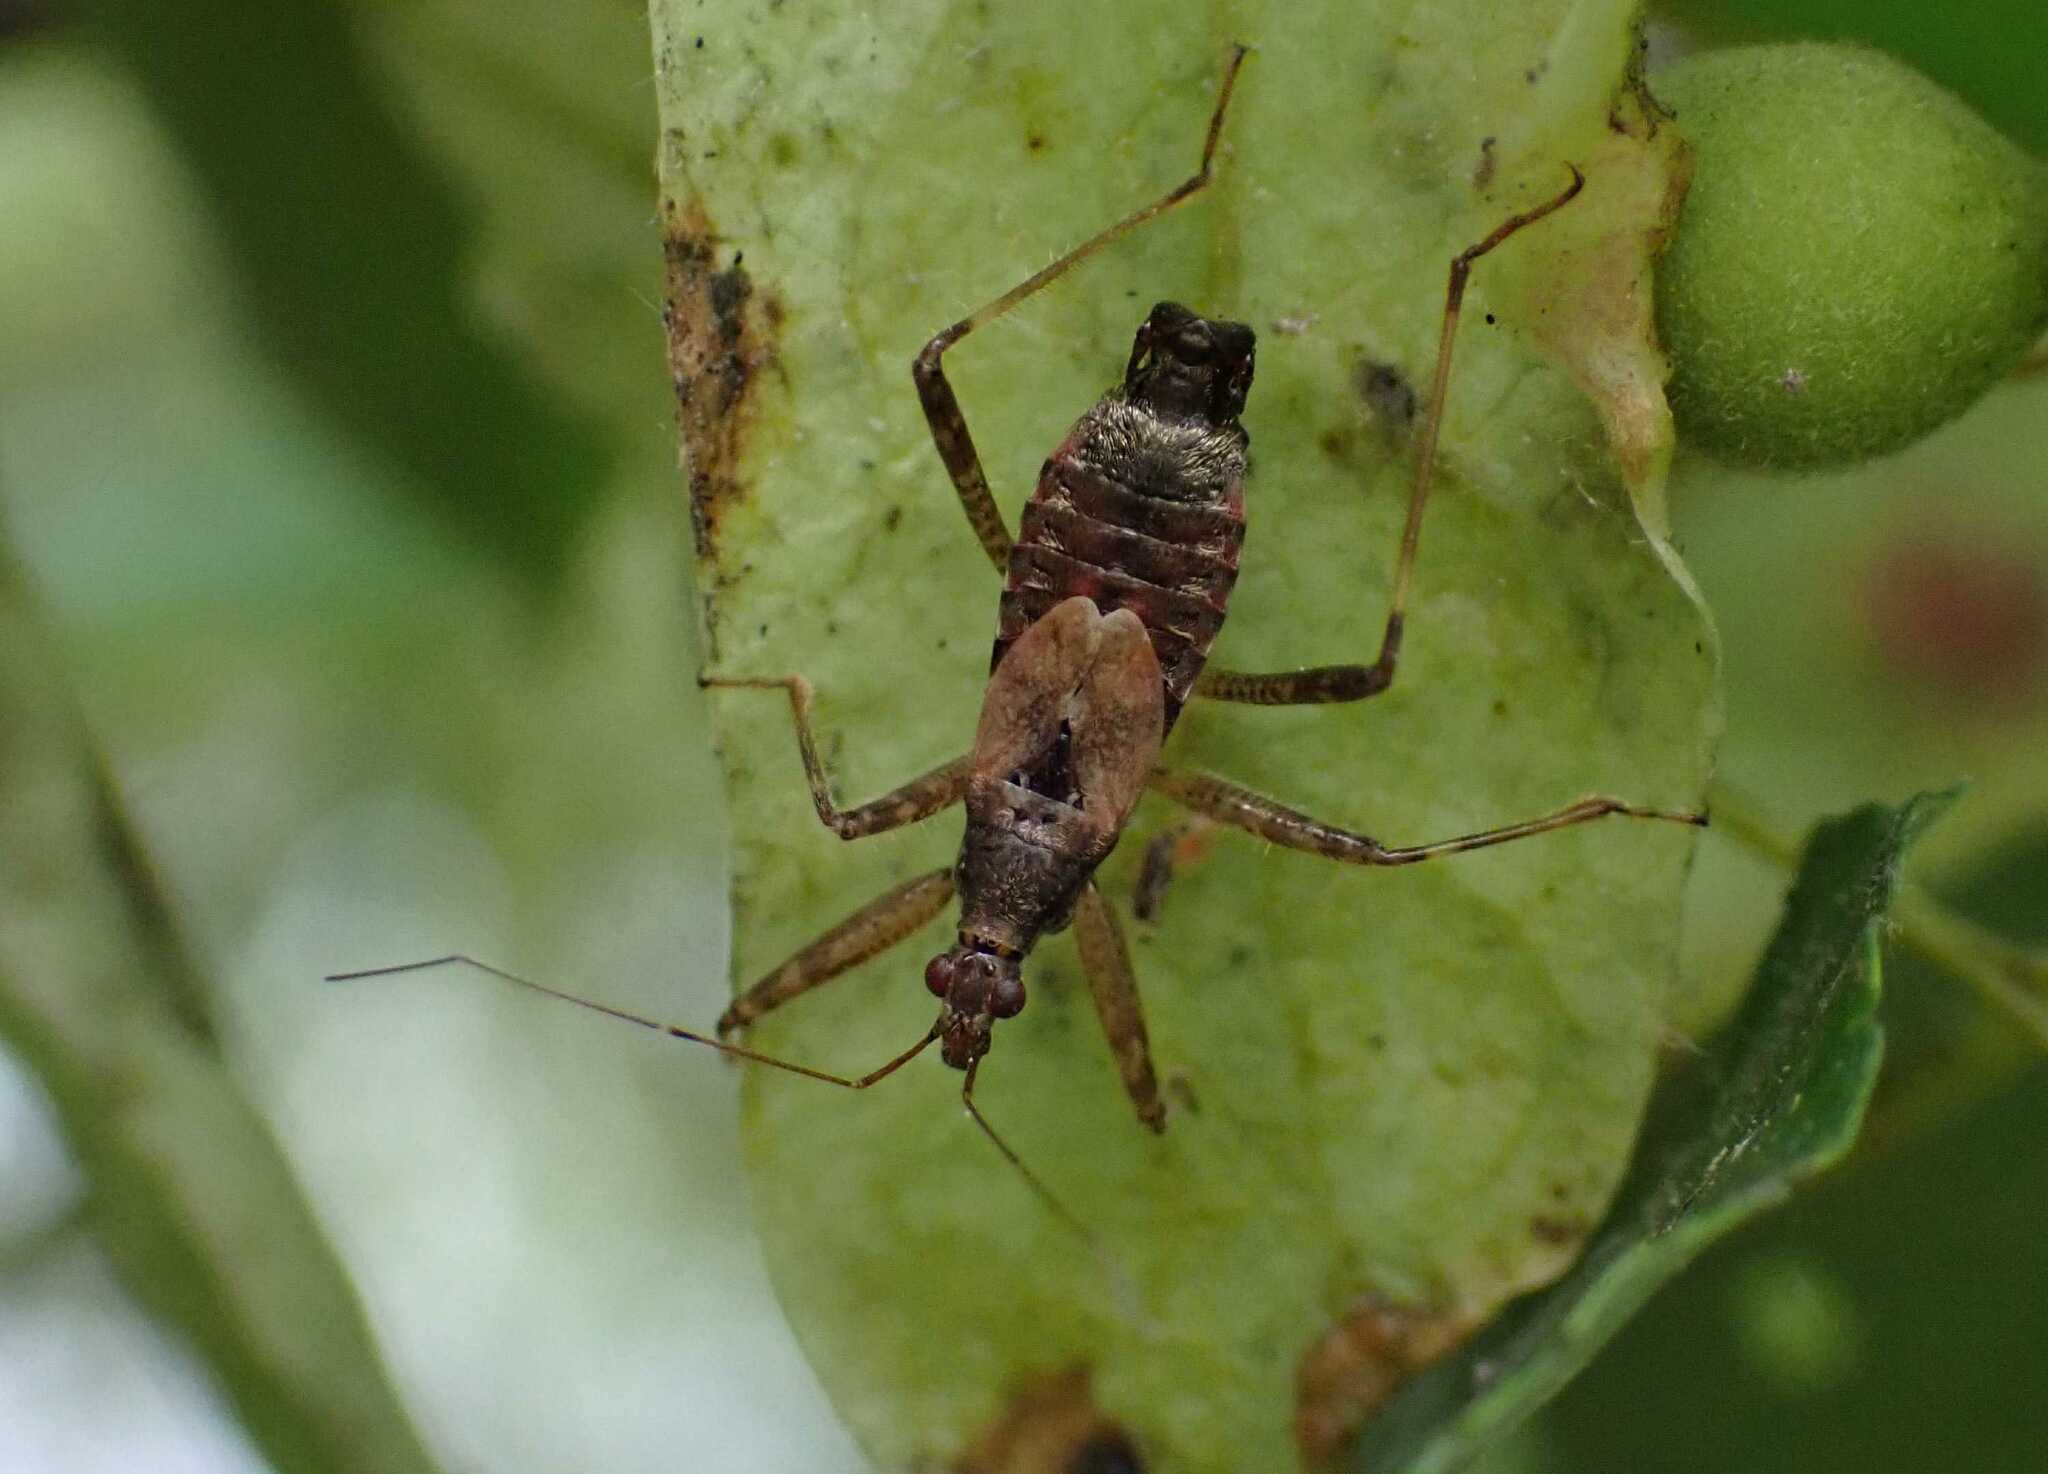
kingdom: Animalia
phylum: Arthropoda
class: Insecta
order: Hemiptera
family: Nabidae
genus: Himacerus
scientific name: Himacerus apterus
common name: Tree damsel bug
